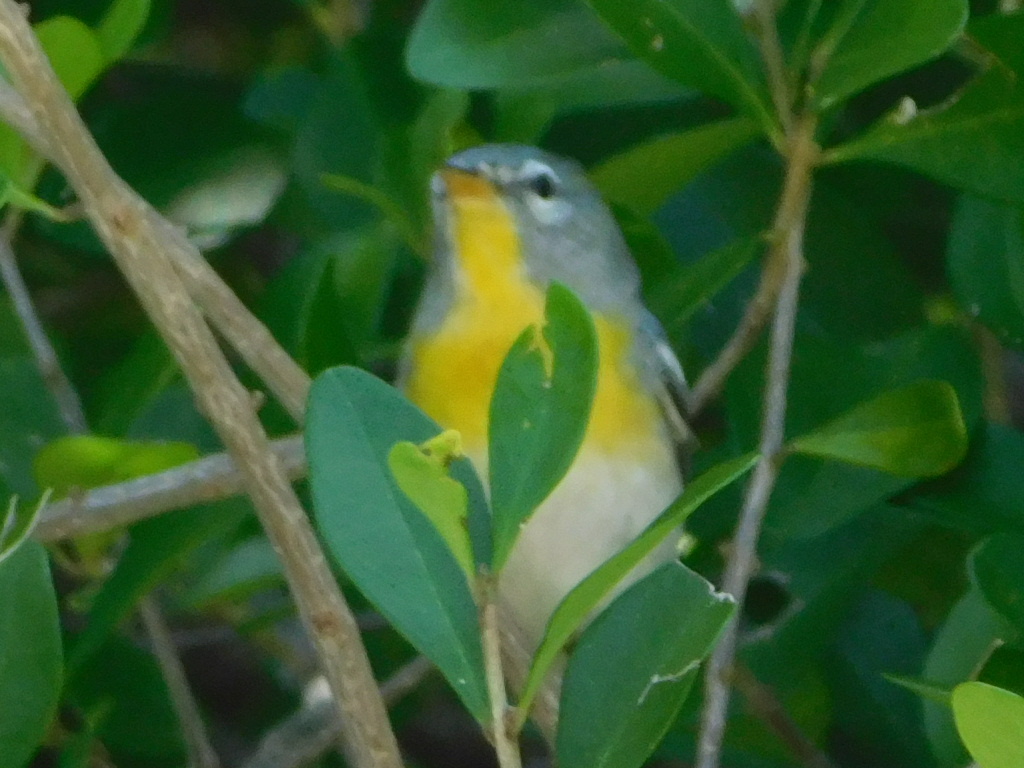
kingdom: Animalia
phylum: Chordata
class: Aves
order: Passeriformes
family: Parulidae
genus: Setophaga
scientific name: Setophaga americana
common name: Northern parula
